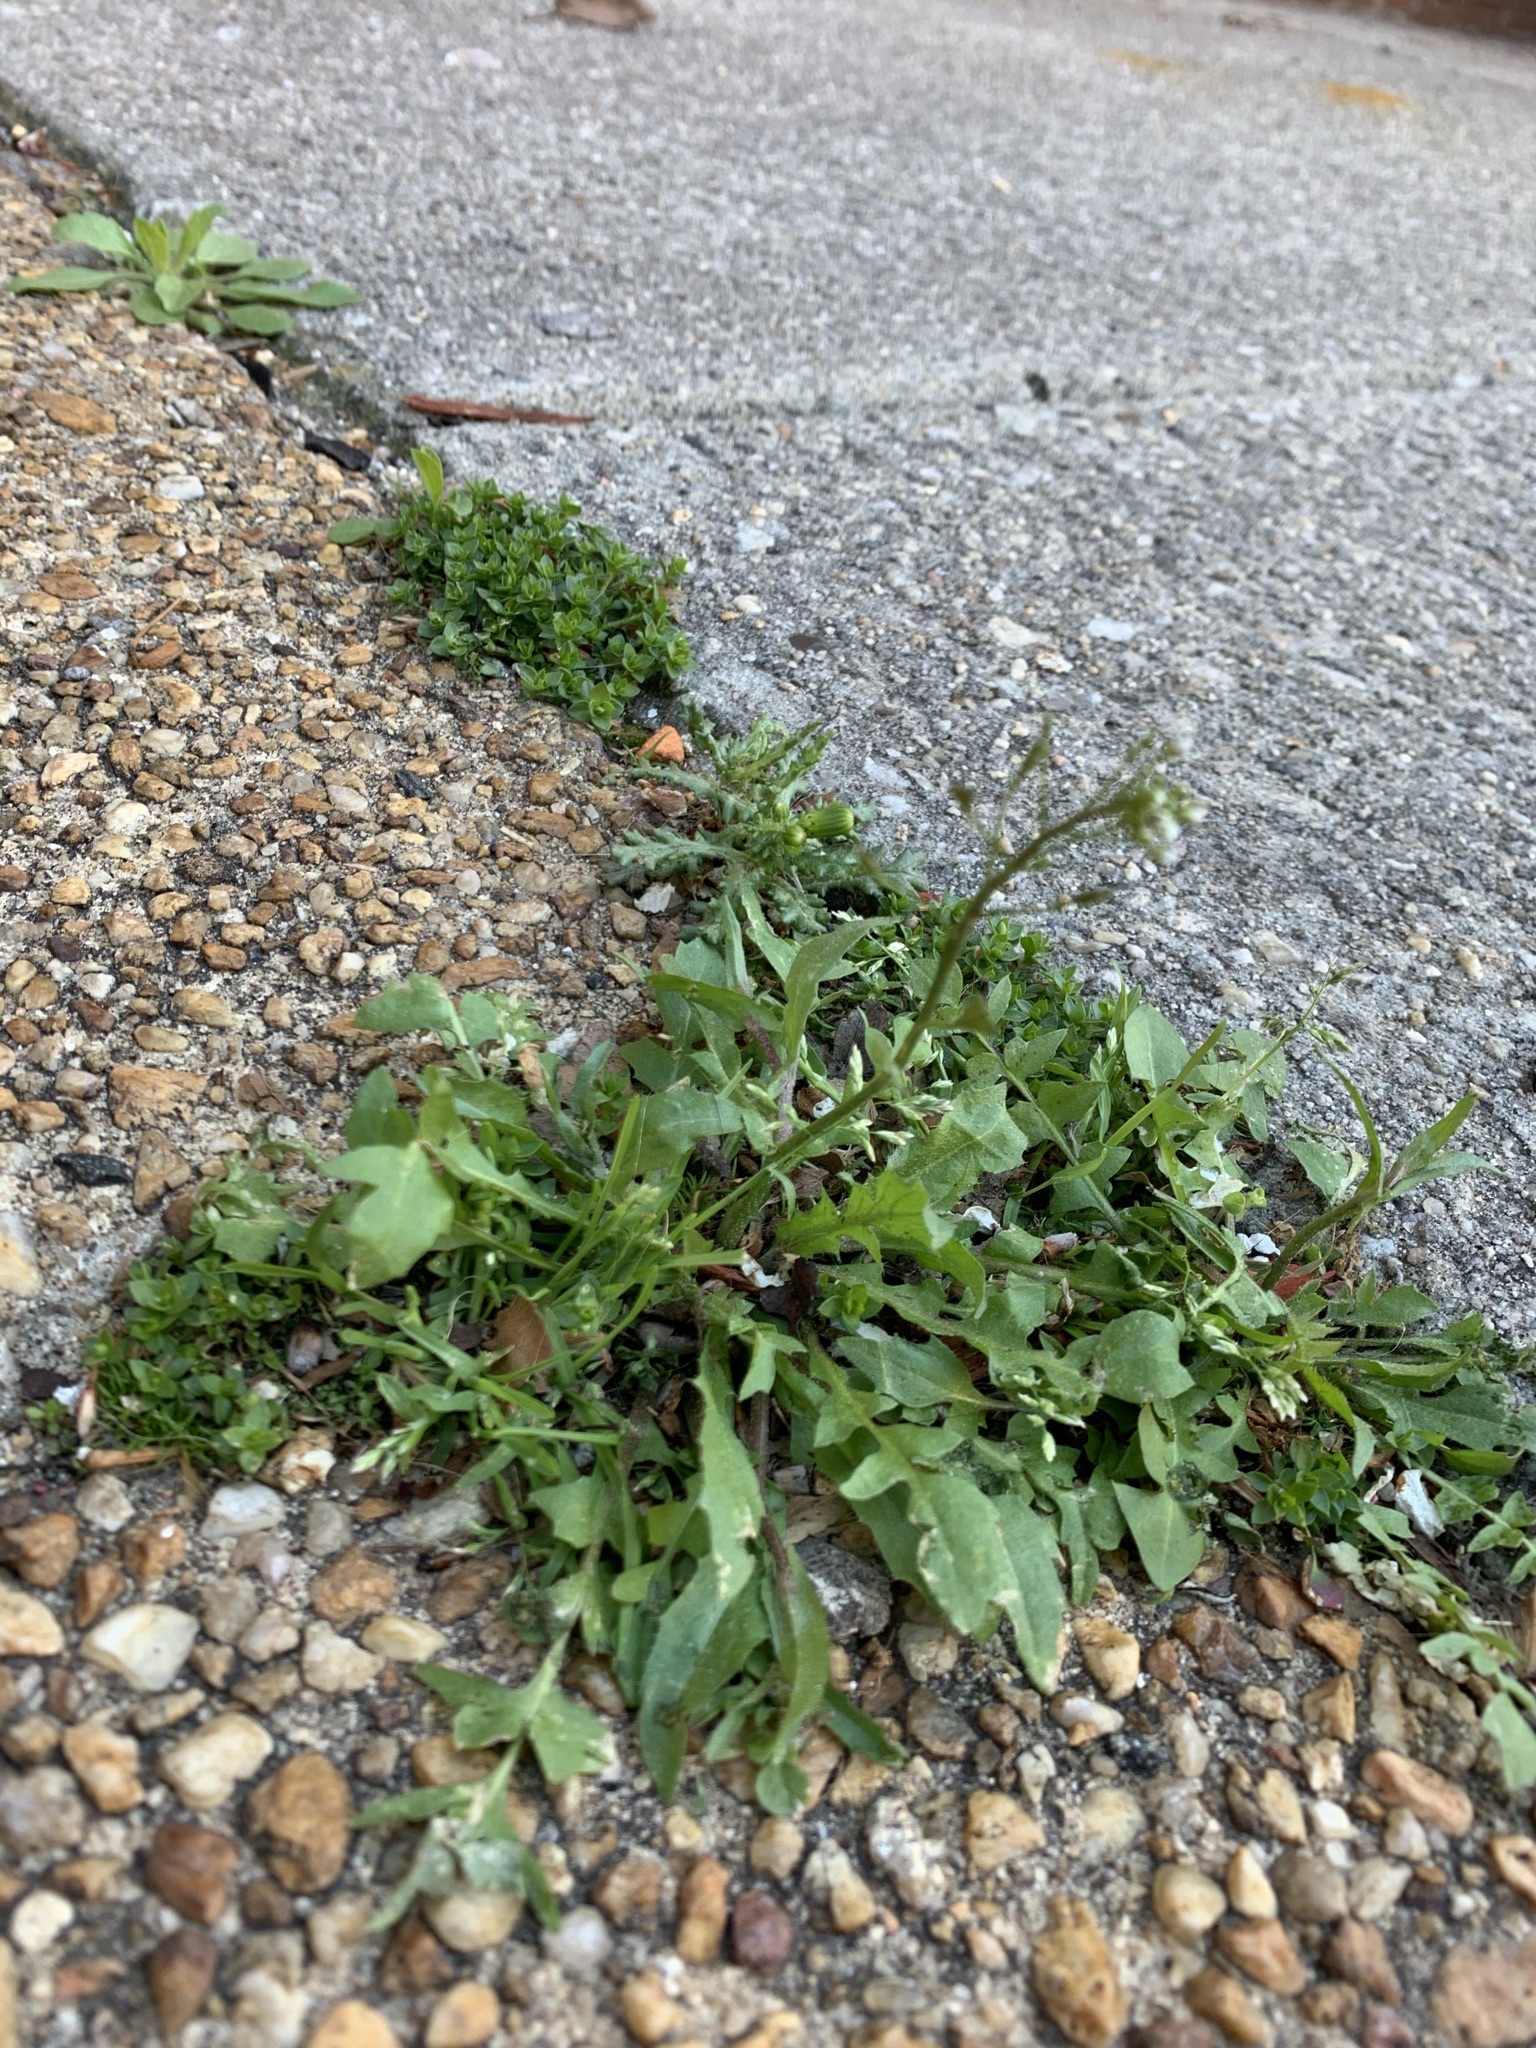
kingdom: Plantae
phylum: Tracheophyta
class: Magnoliopsida
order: Brassicales
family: Brassicaceae
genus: Capsella
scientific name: Capsella bursa-pastoris
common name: Shepherd's purse
